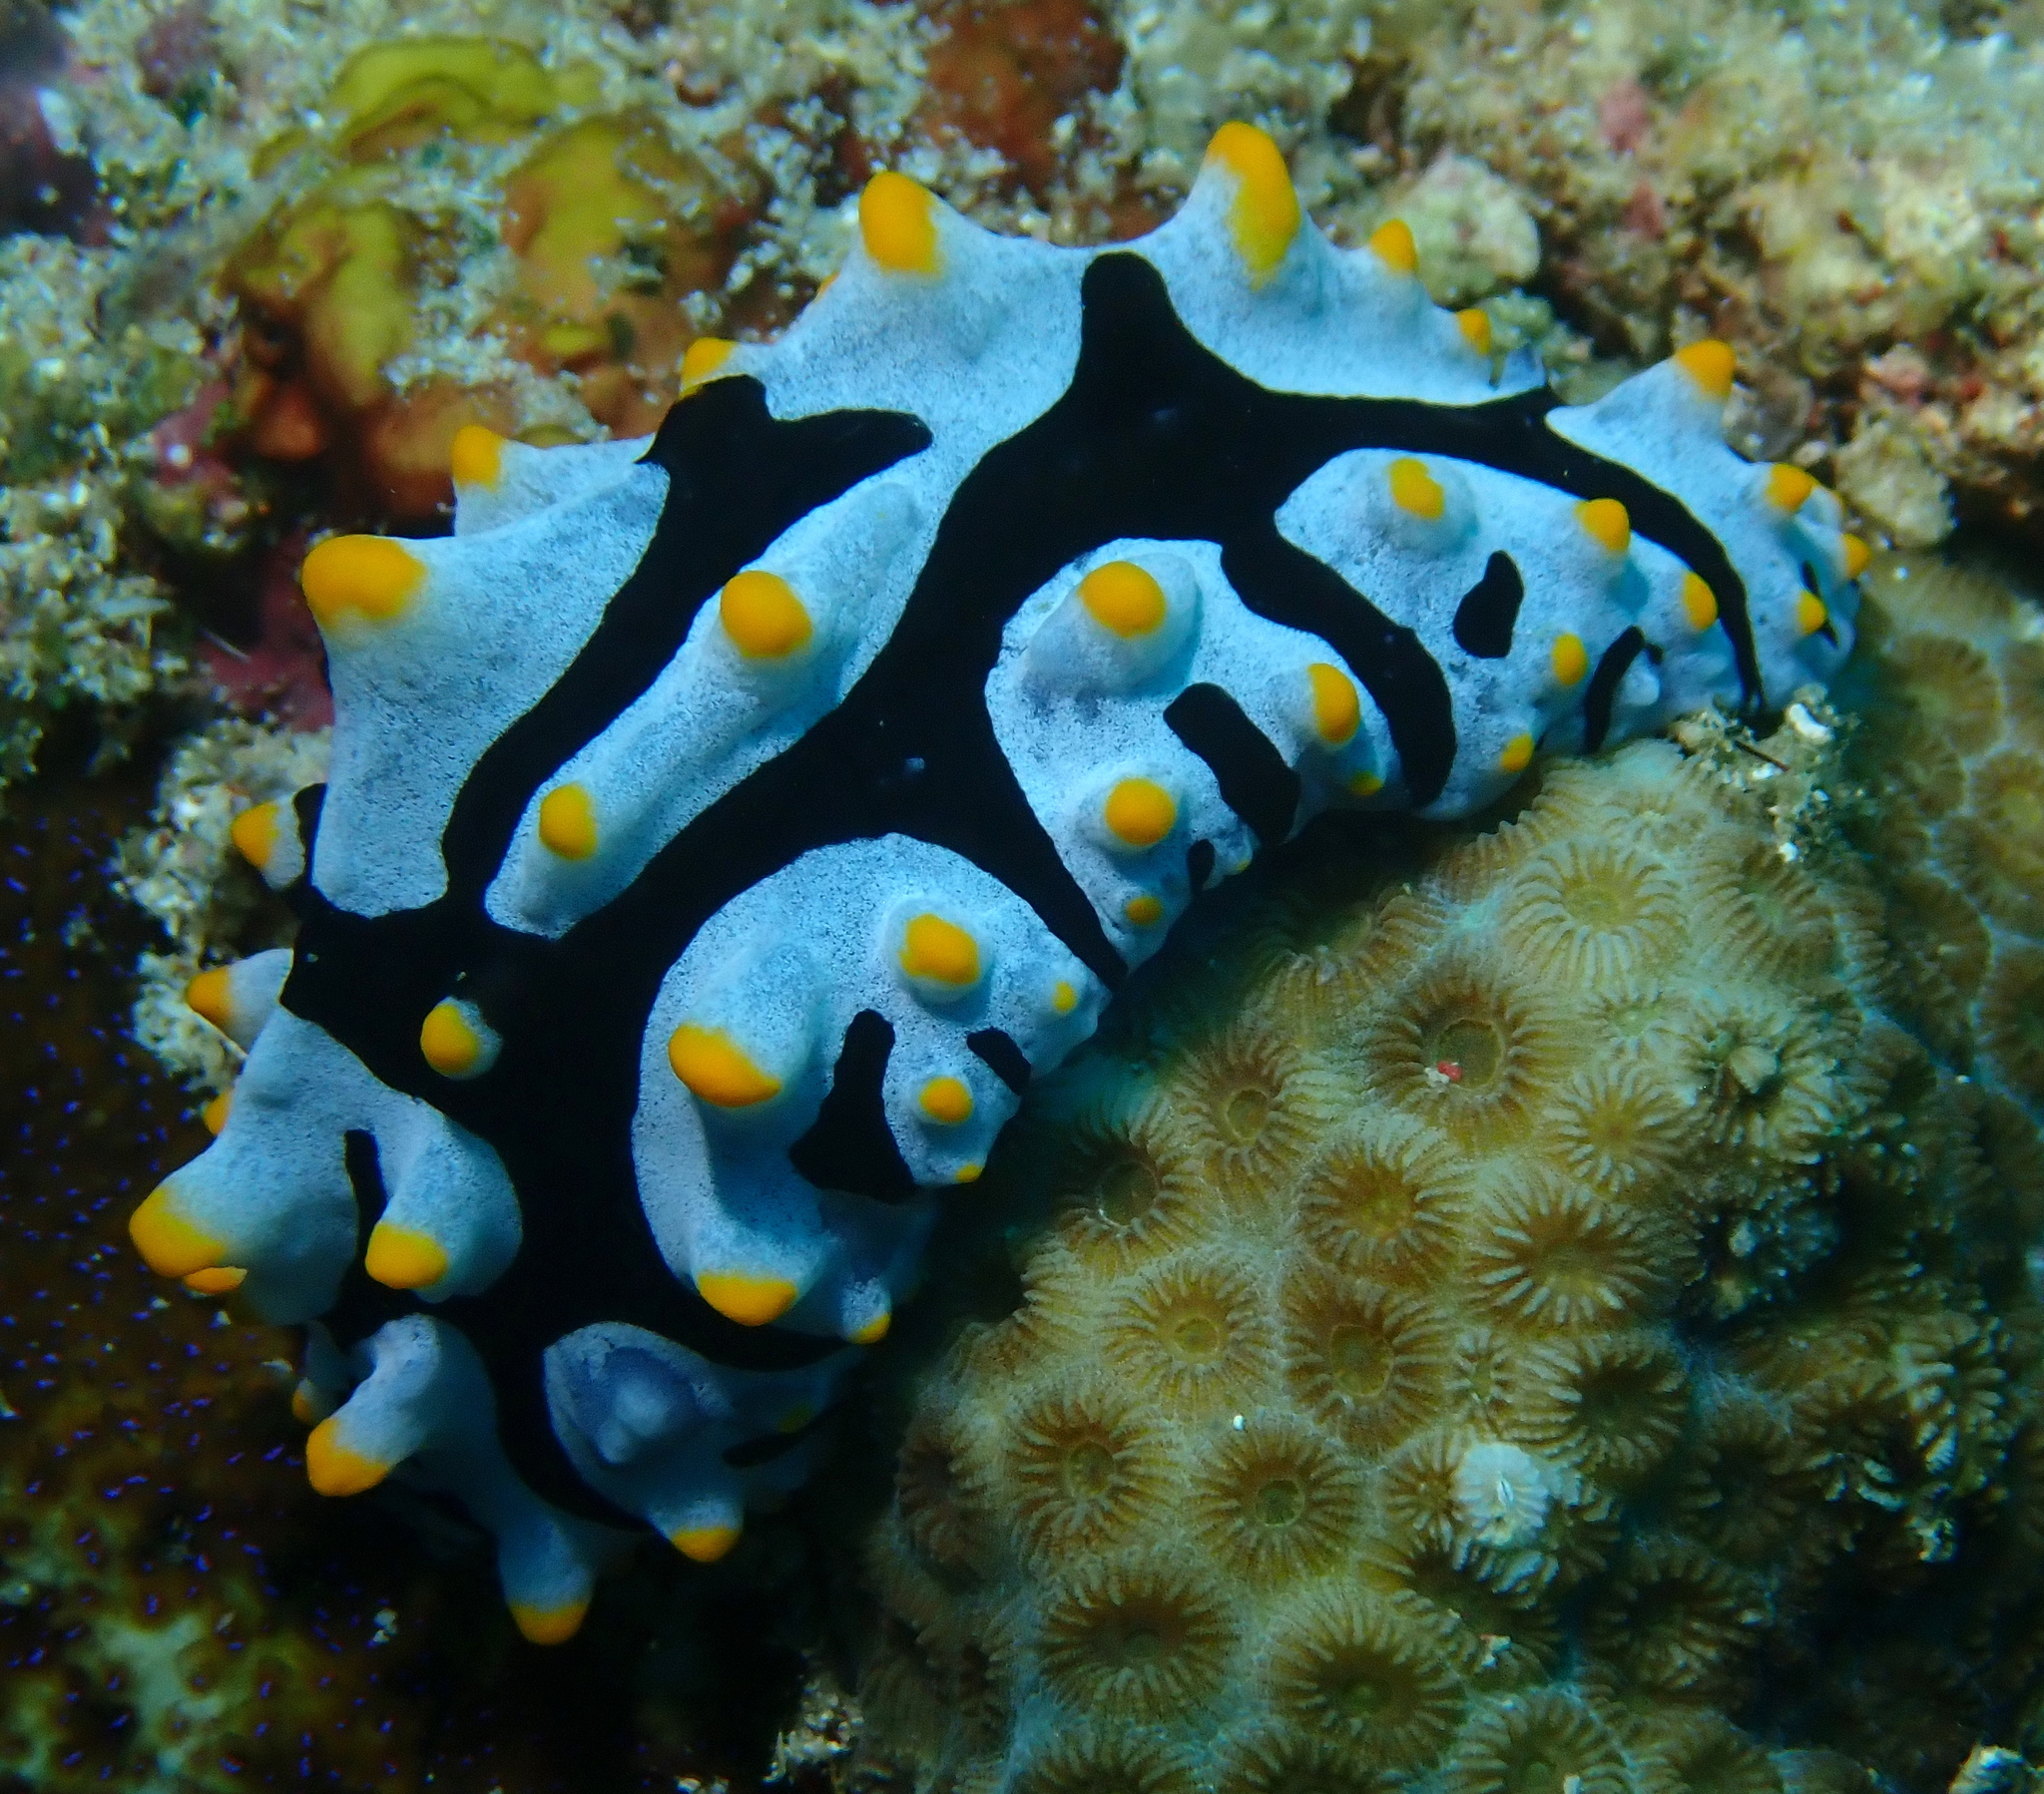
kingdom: Animalia
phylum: Mollusca
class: Gastropoda
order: Nudibranchia
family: Phyllidiidae
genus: Phyllidia
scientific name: Phyllidia varicosa
